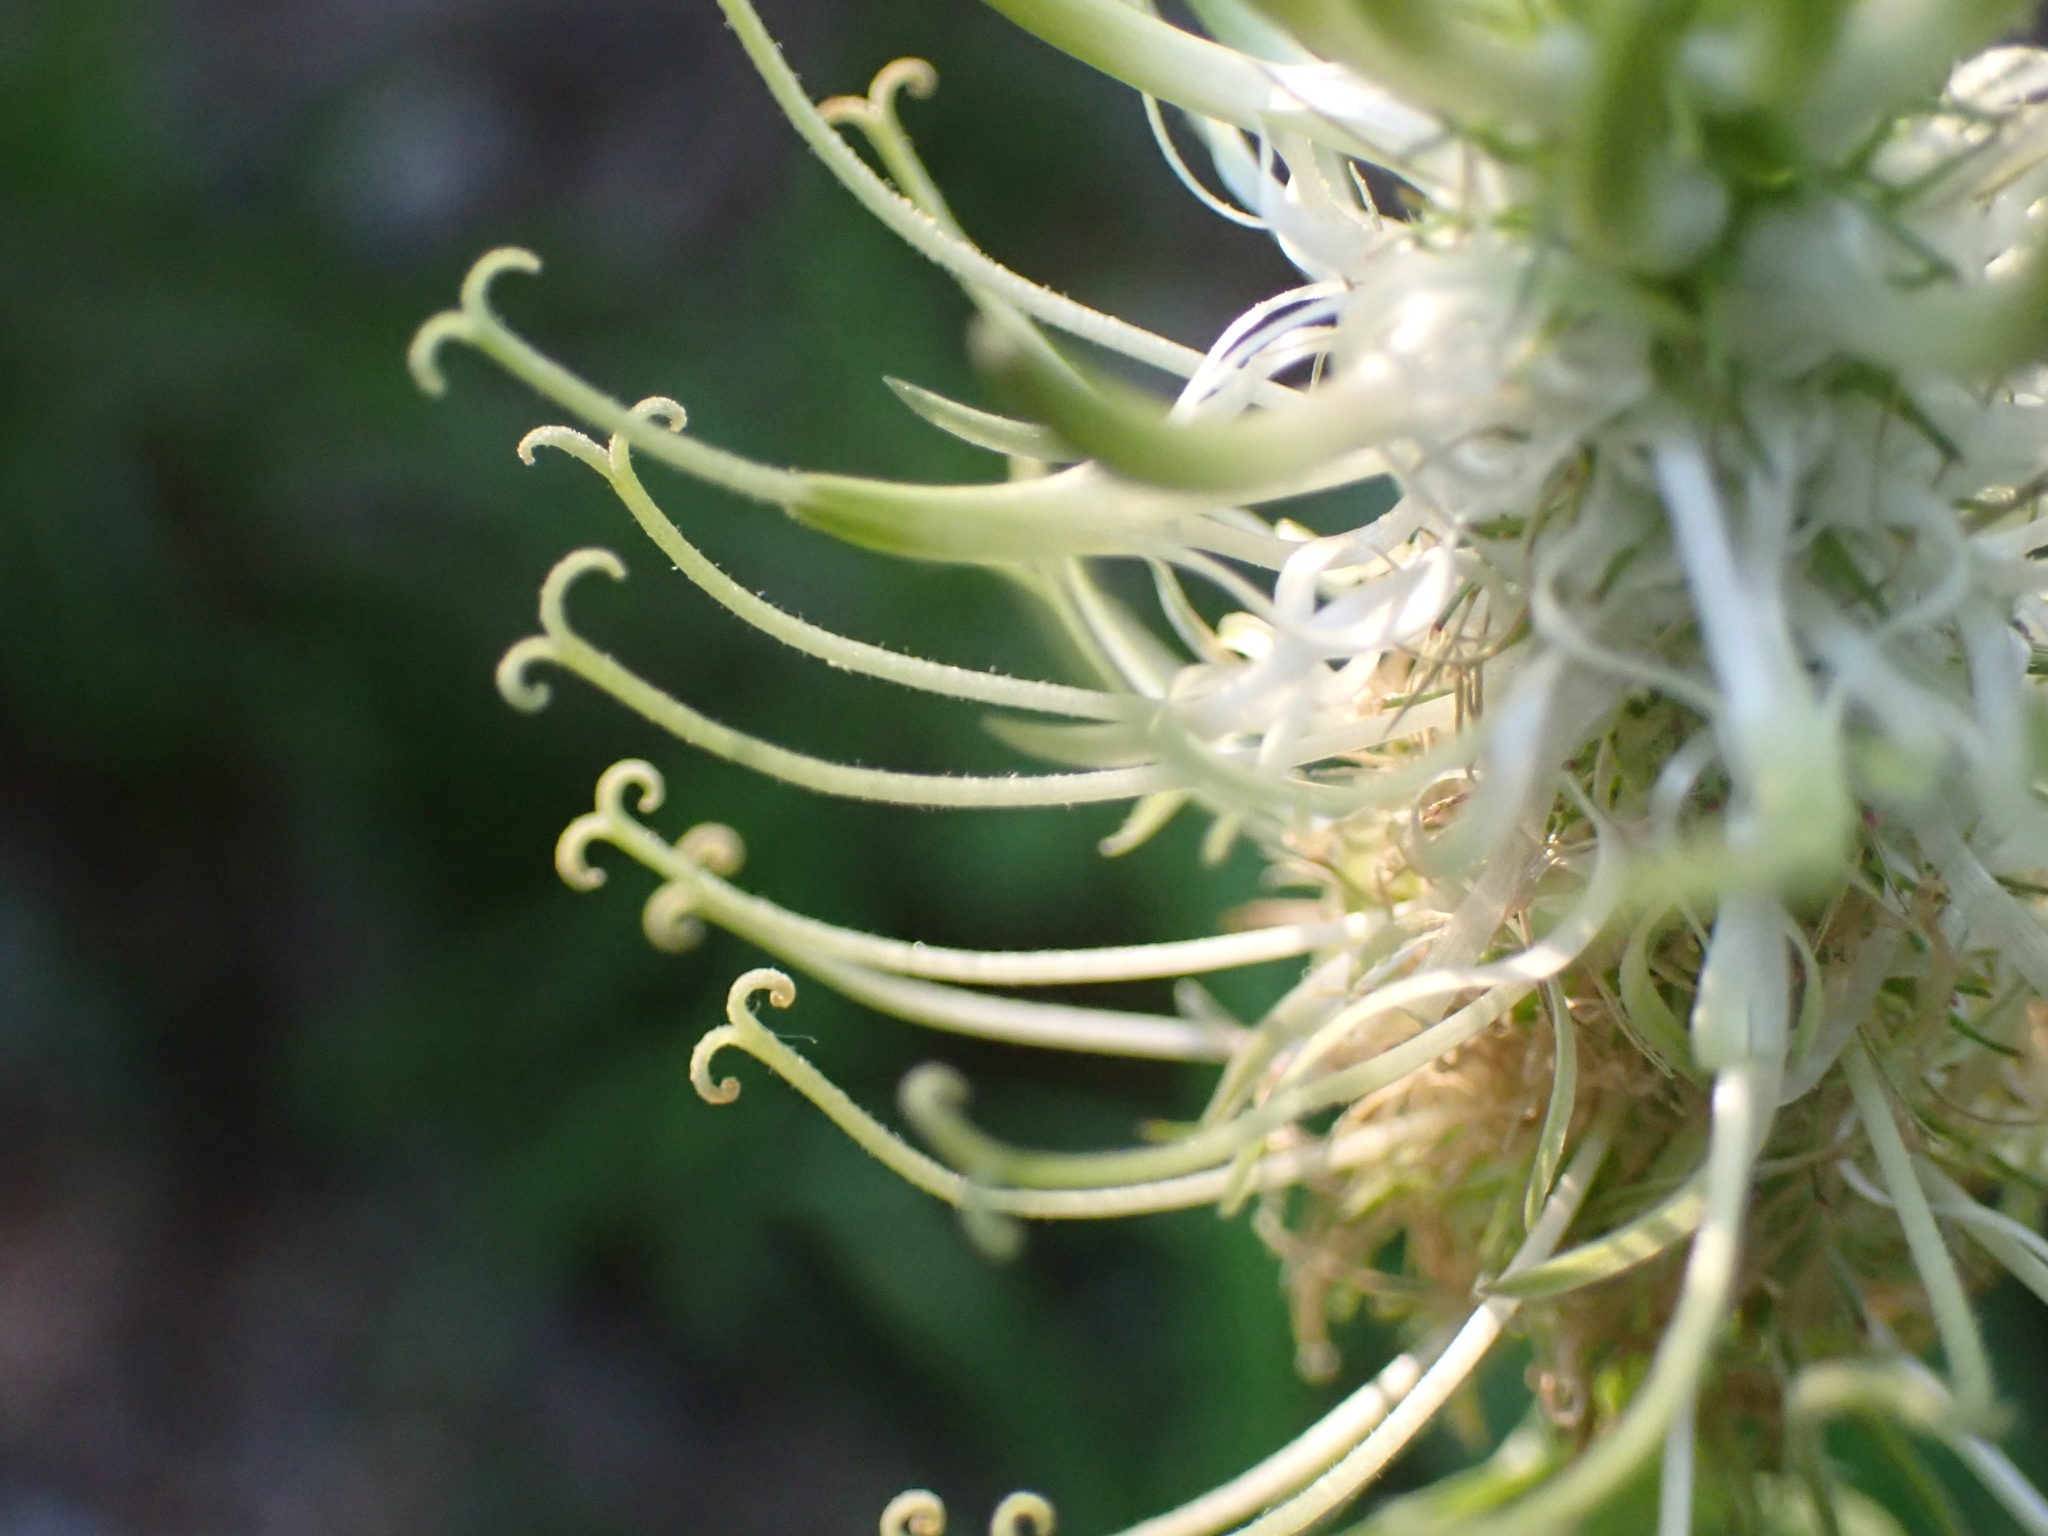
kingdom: Plantae
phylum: Tracheophyta
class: Magnoliopsida
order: Asterales
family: Campanulaceae
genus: Phyteuma
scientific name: Phyteuma spicatum
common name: Spiked rampion
